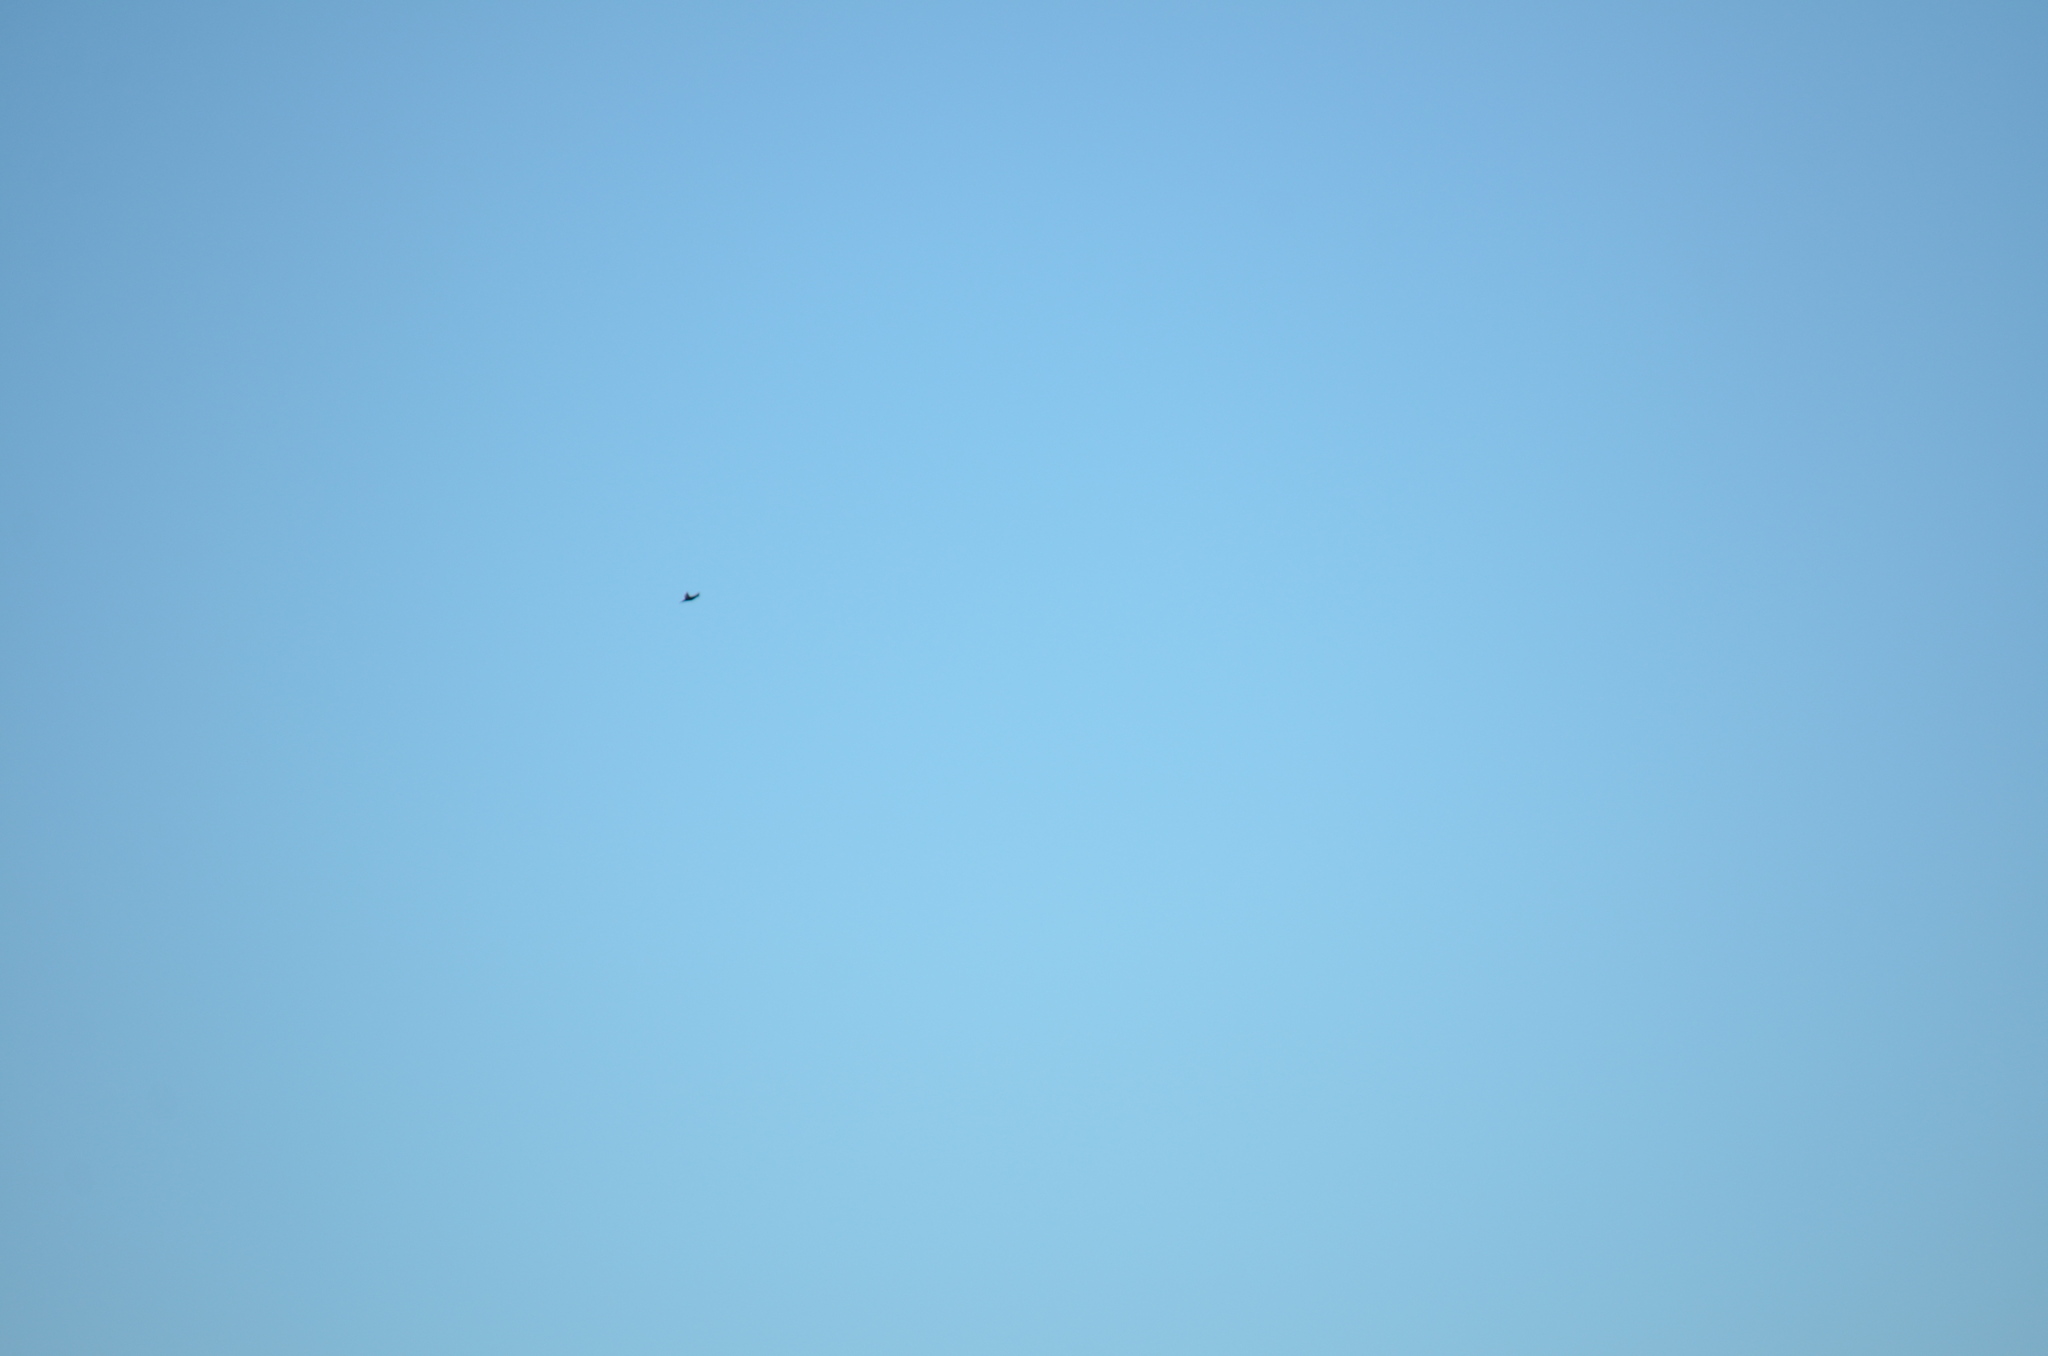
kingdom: Animalia
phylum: Chordata
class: Aves
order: Passeriformes
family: Hirundinidae
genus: Progne
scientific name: Progne subis
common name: Purple martin
